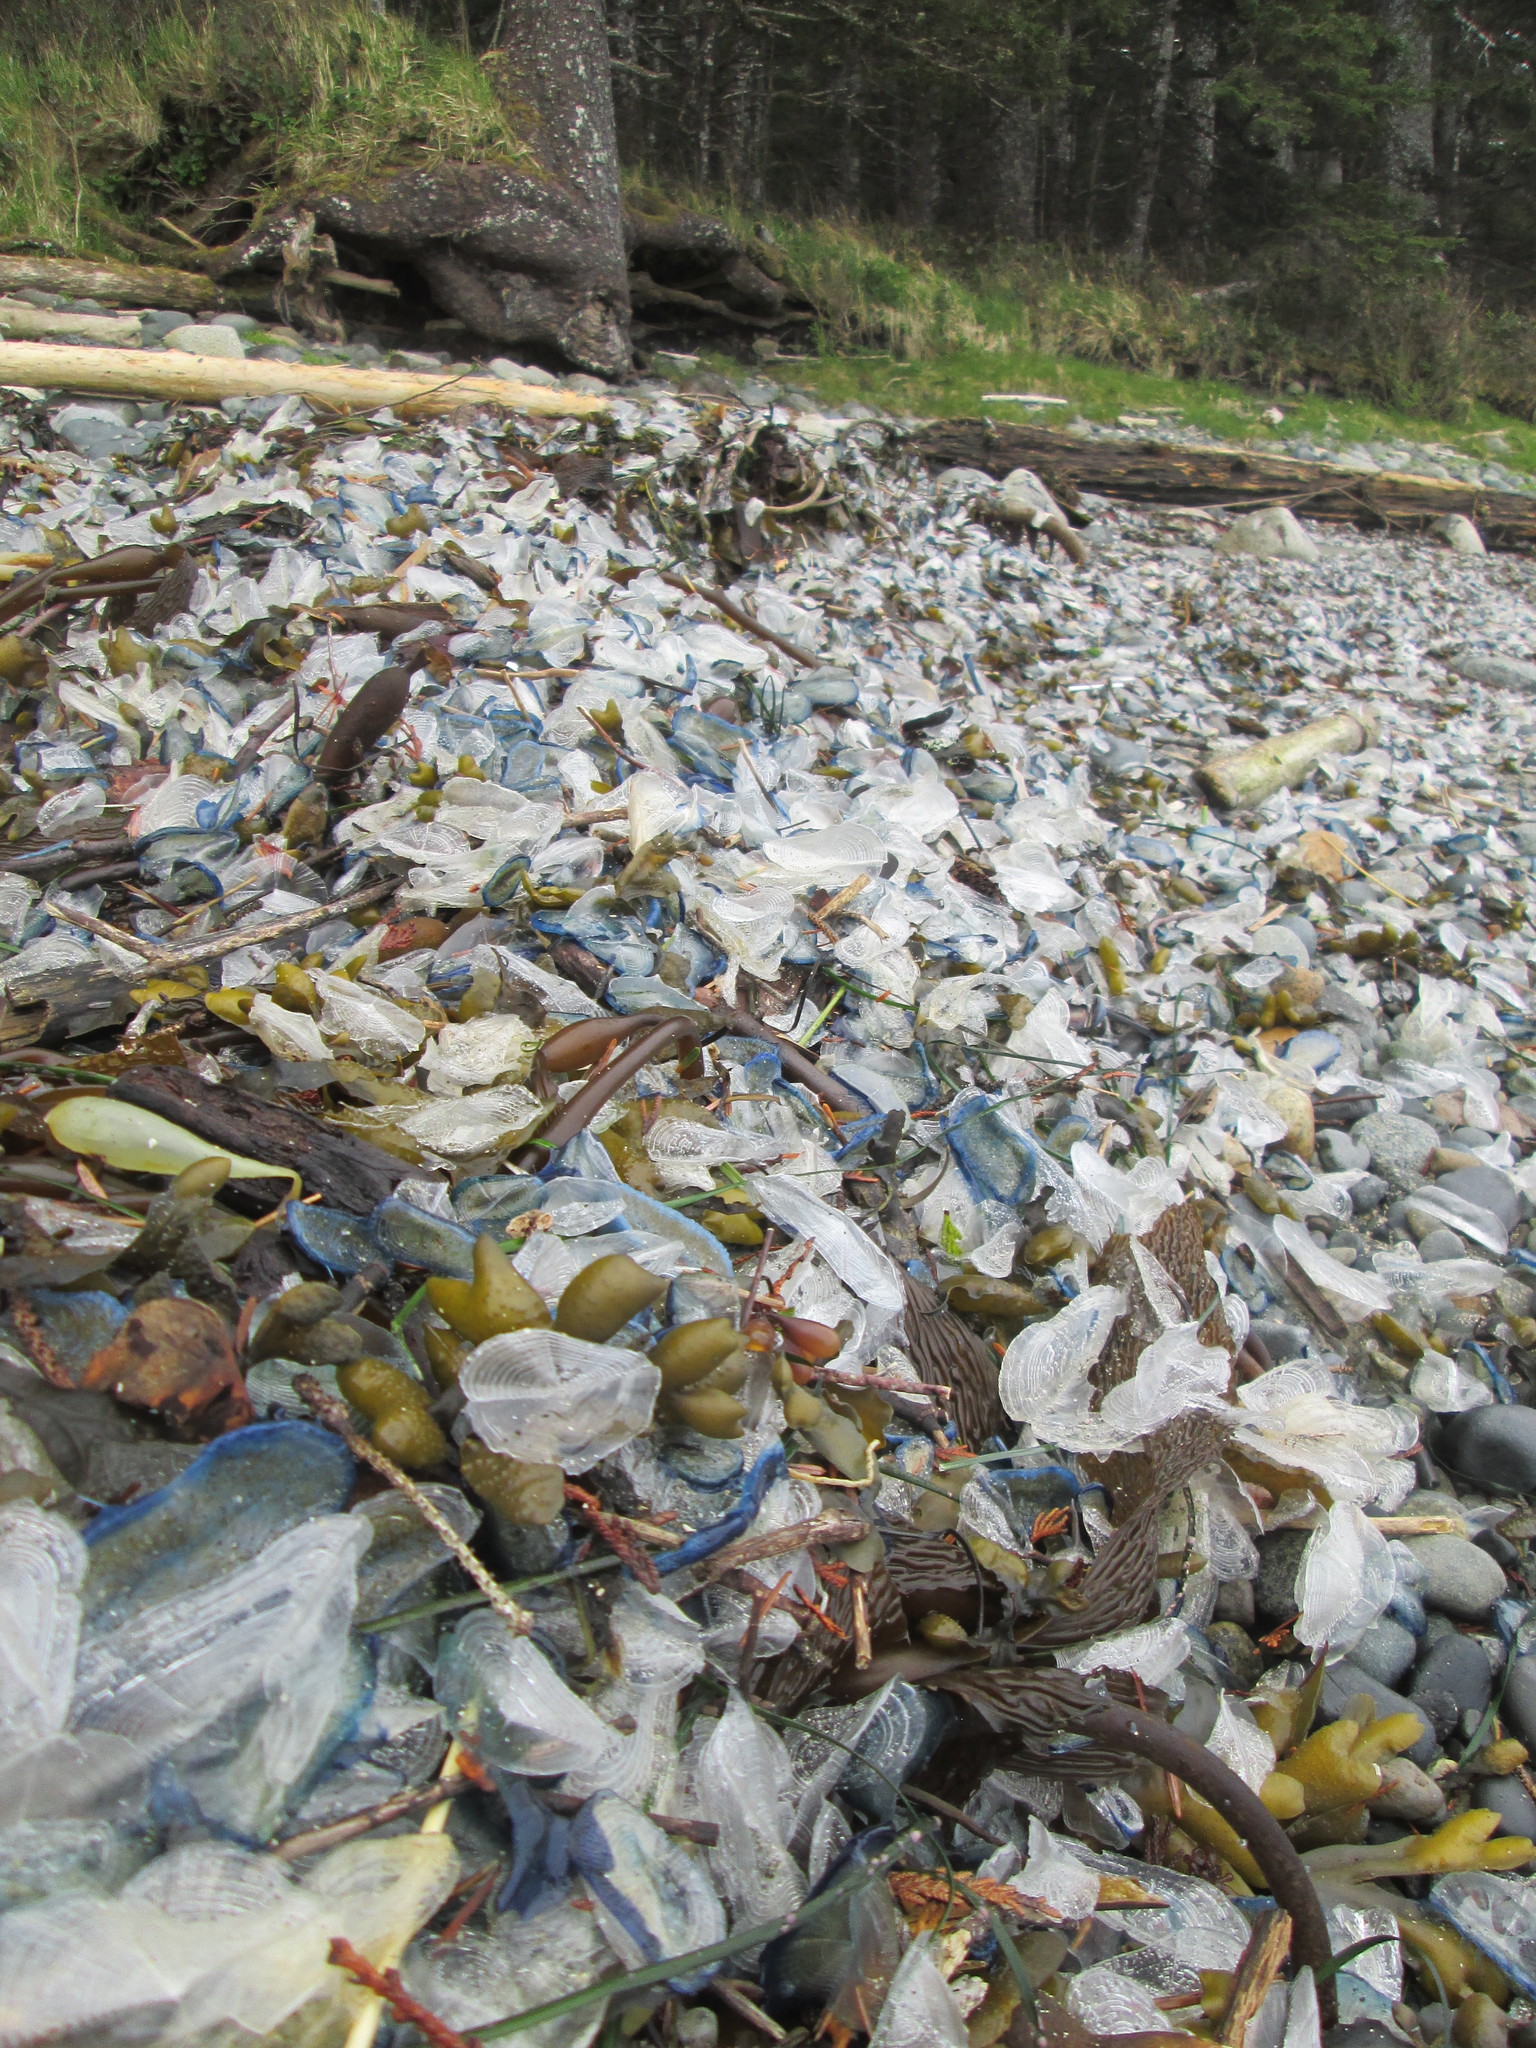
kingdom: Animalia
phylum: Cnidaria
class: Hydrozoa
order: Anthoathecata
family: Porpitidae
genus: Velella
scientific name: Velella velella
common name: By-the-wind-sailor
